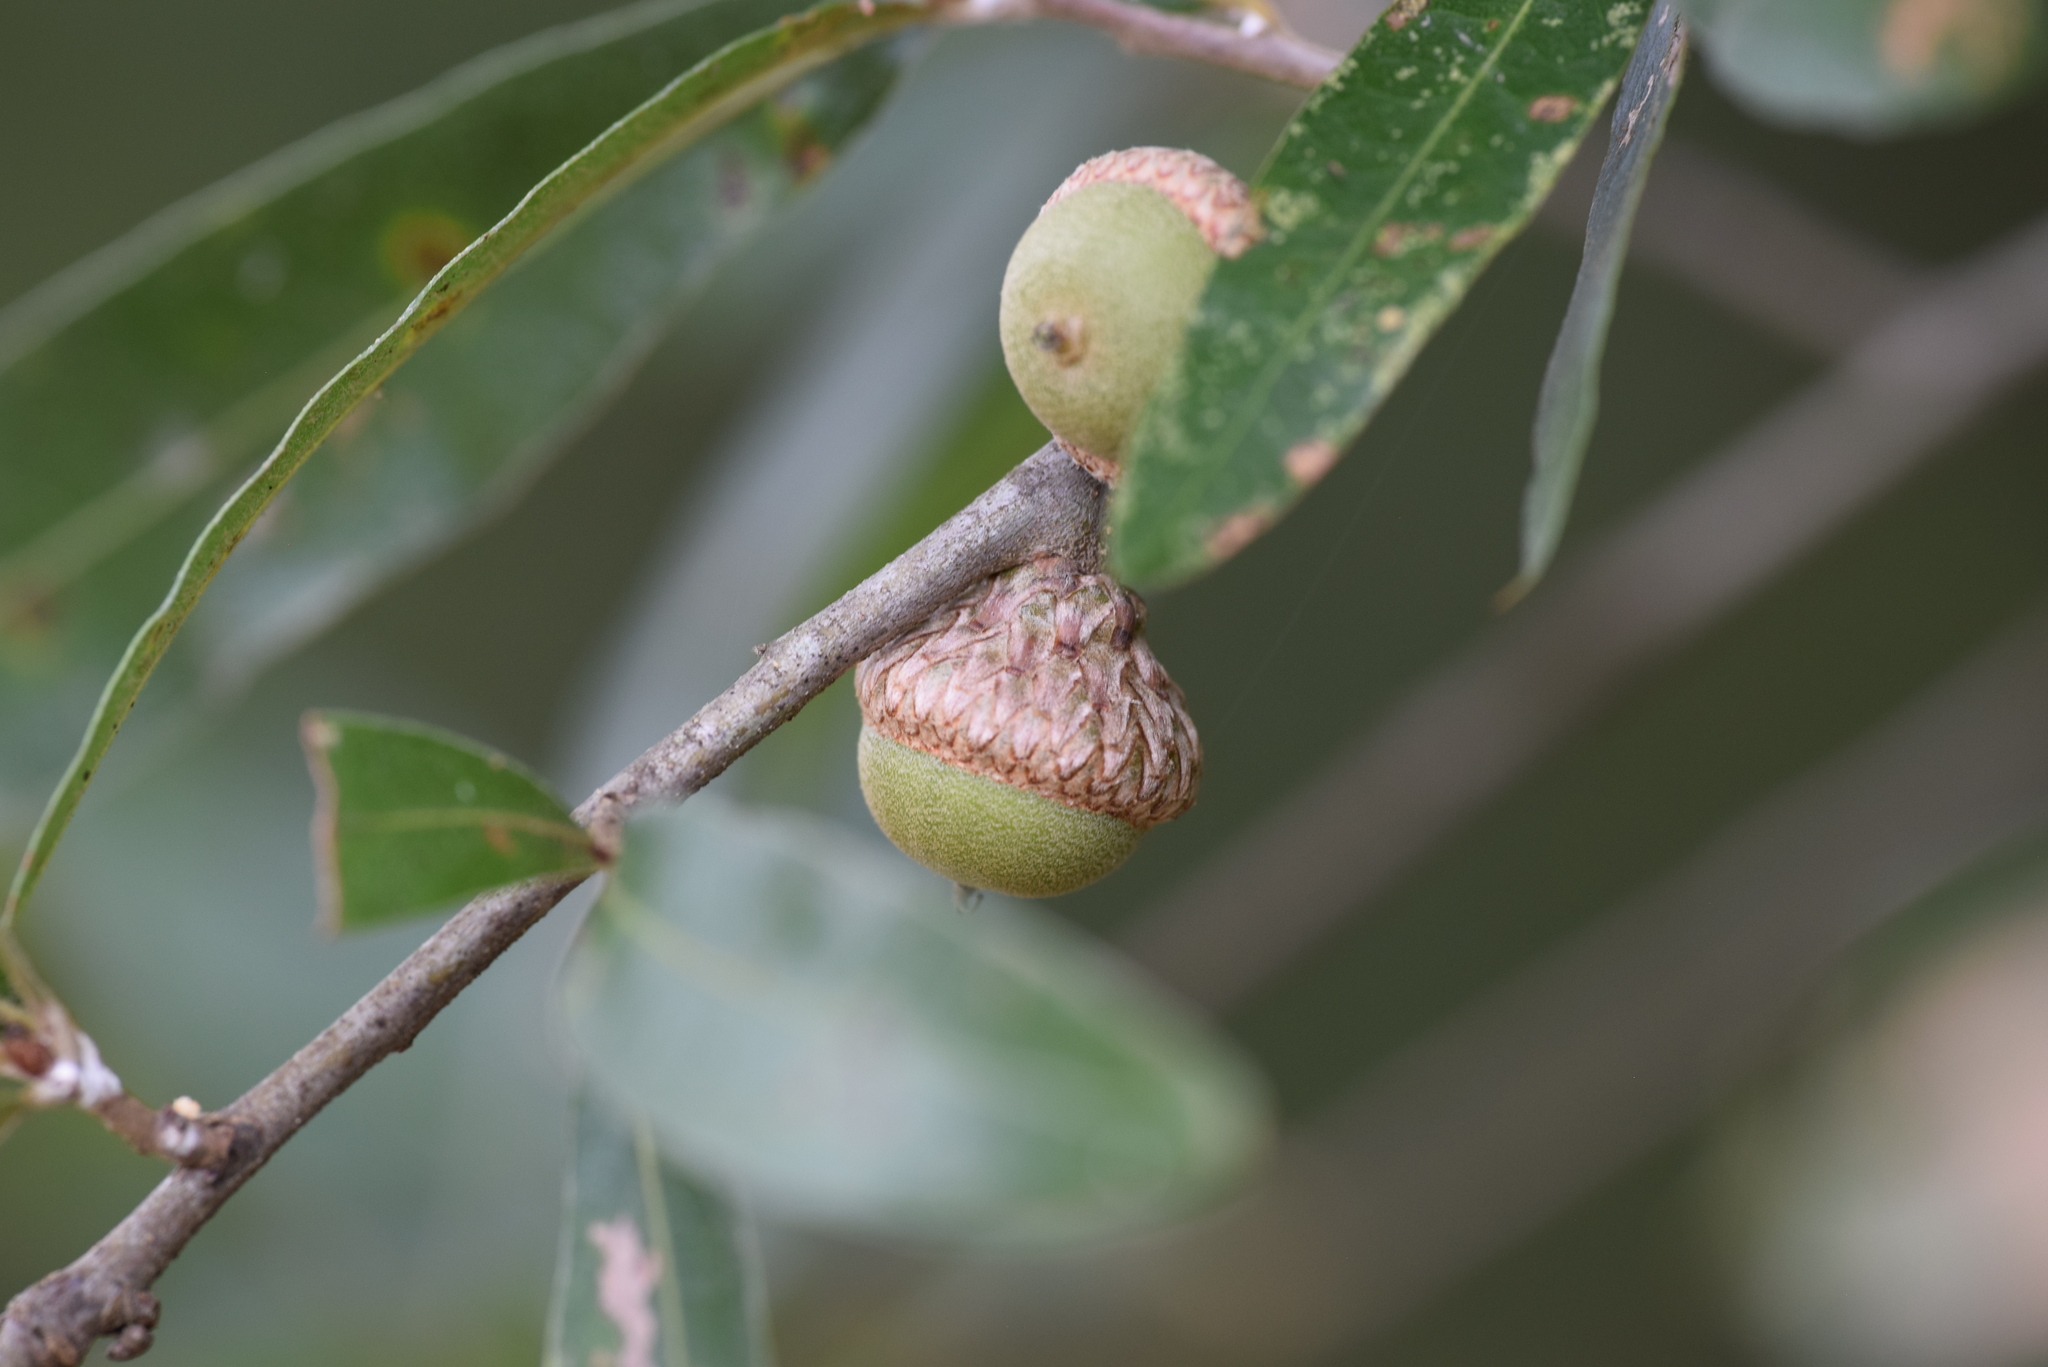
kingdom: Plantae
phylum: Tracheophyta
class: Magnoliopsida
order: Fagales
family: Fagaceae
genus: Quercus
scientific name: Quercus phellos
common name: Willow oak
